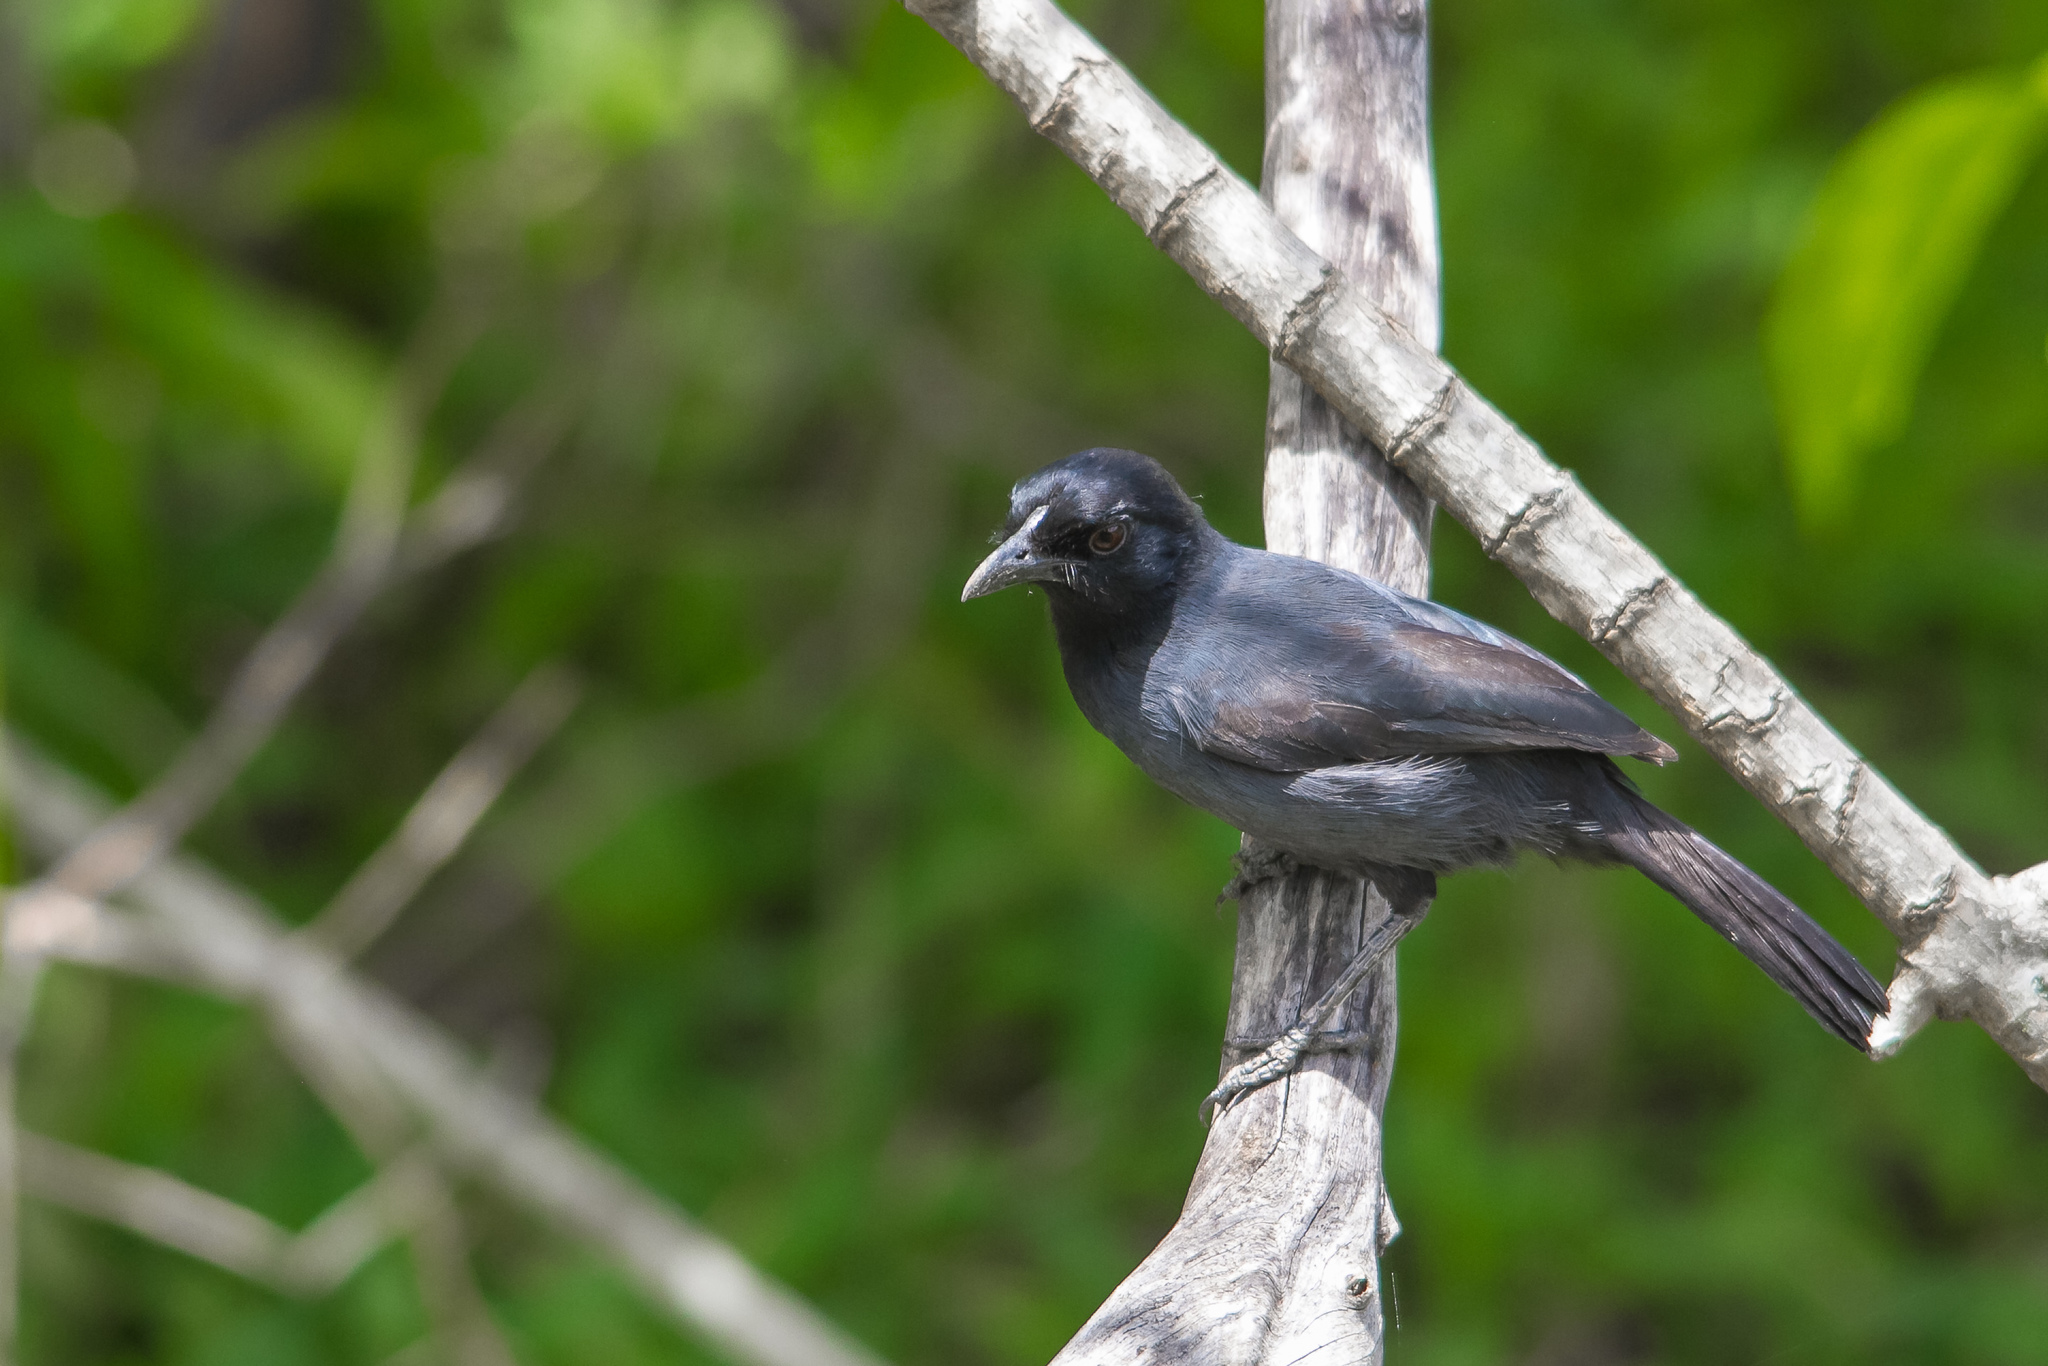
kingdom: Animalia
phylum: Chordata
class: Aves
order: Passeriformes
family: Malaconotidae
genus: Laniarius
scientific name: Laniarius funebris
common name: Slate-colored boubou
